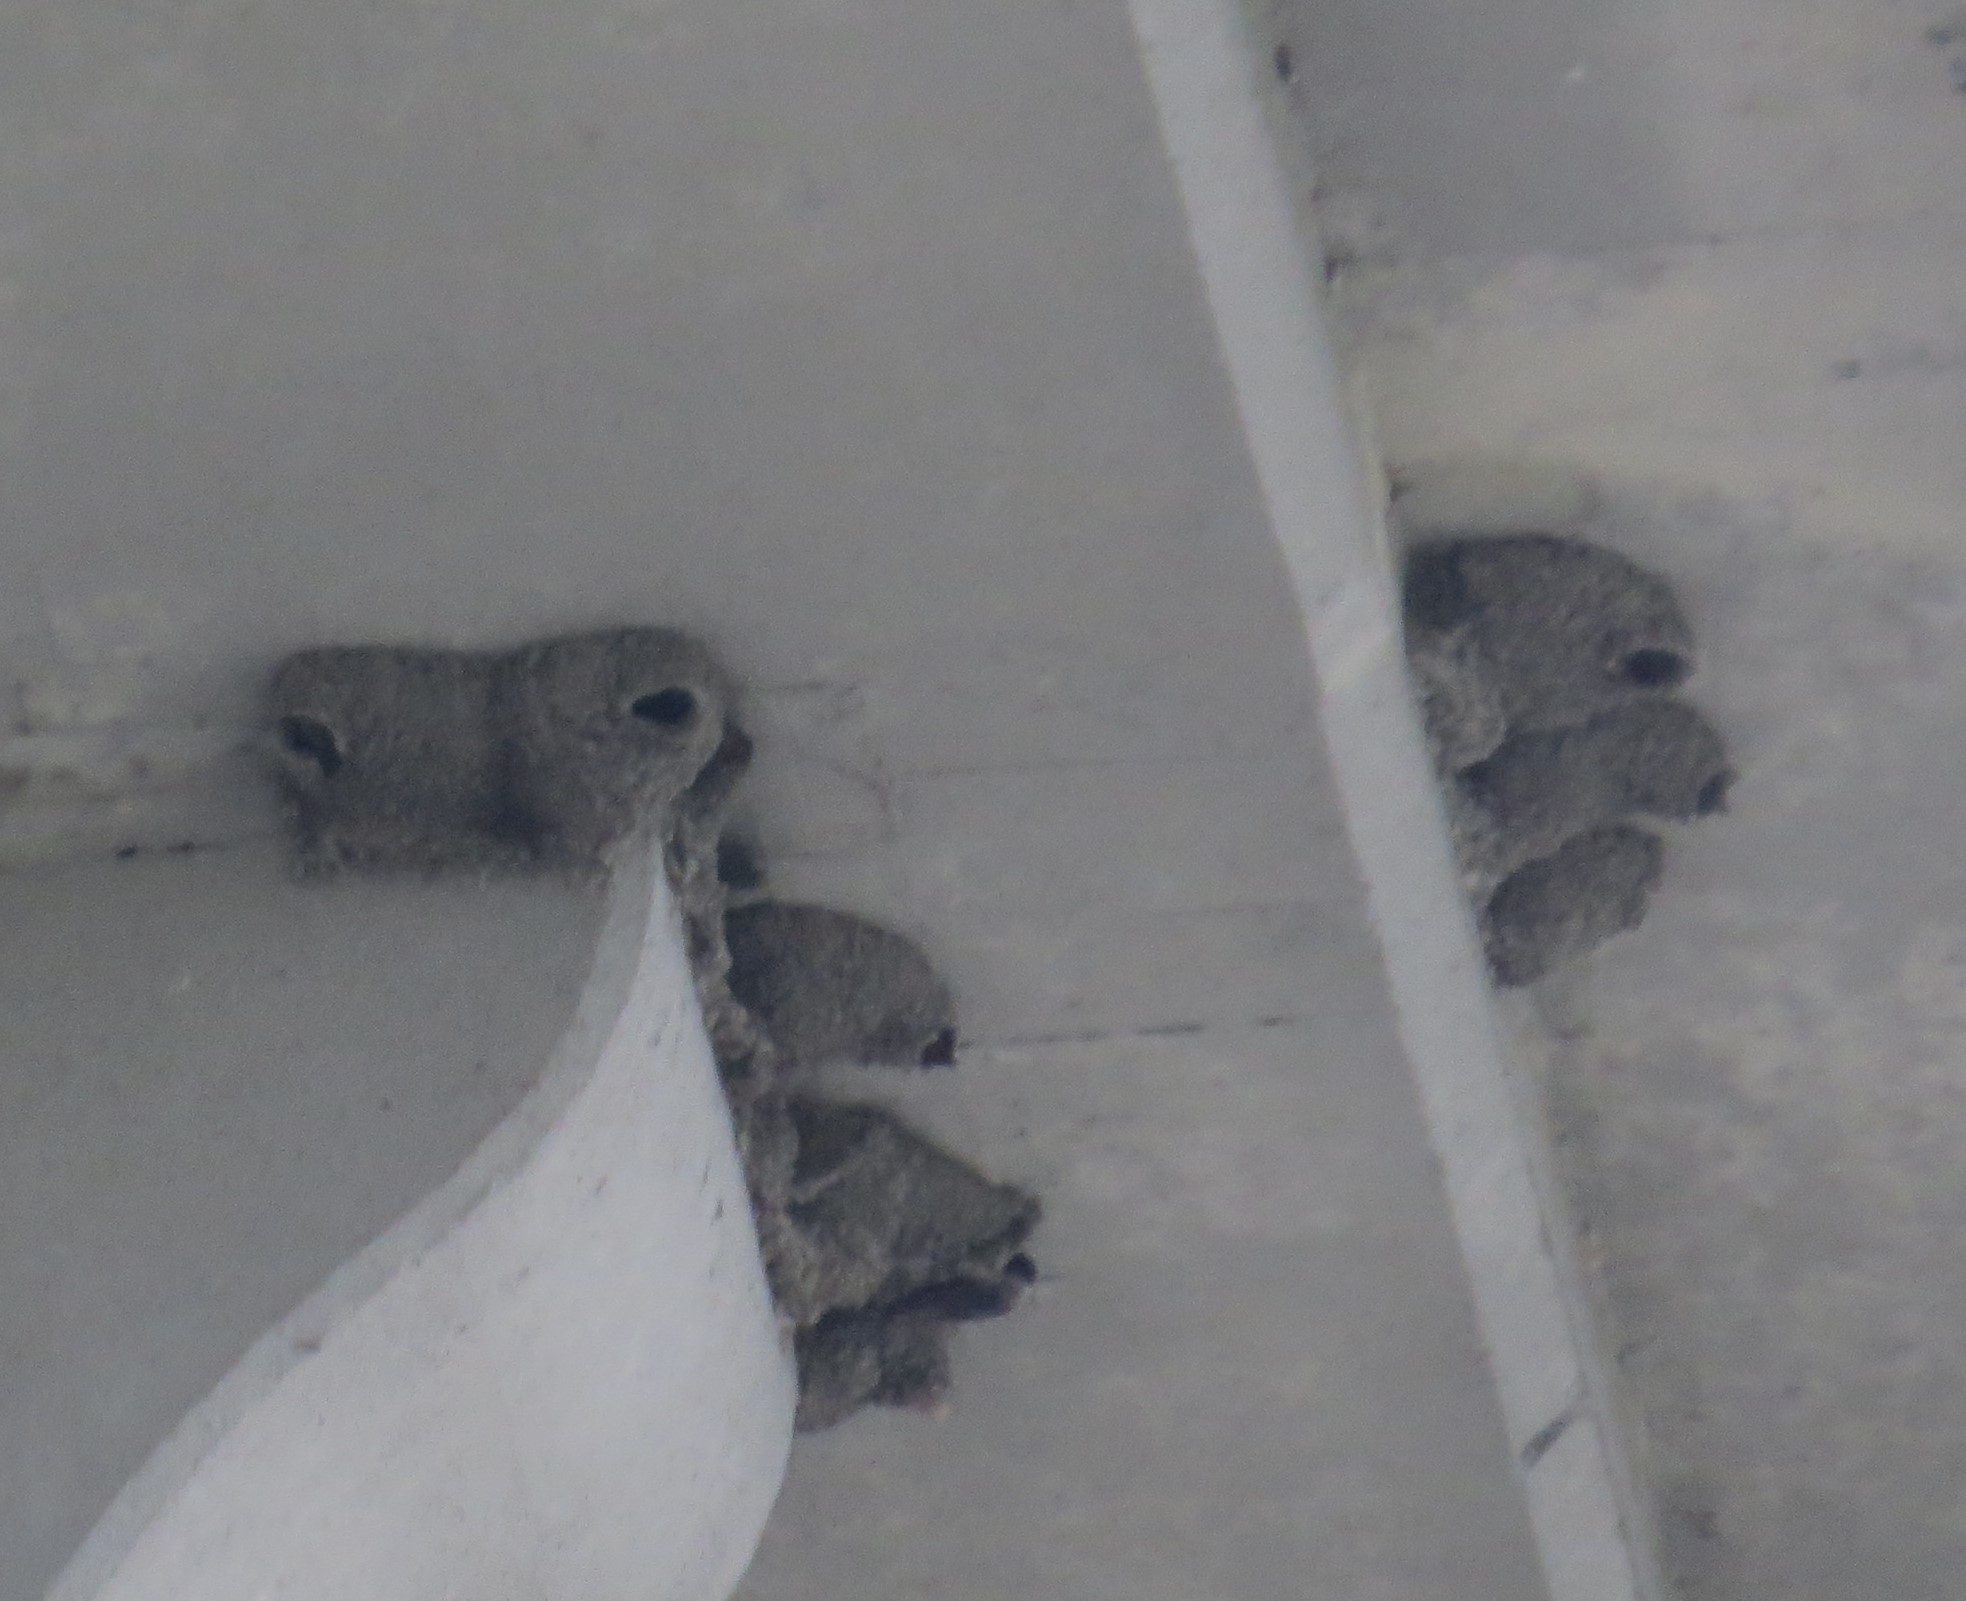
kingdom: Animalia
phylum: Chordata
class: Aves
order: Passeriformes
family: Hirundinidae
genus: Petrochelidon
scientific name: Petrochelidon pyrrhonota
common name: American cliff swallow
